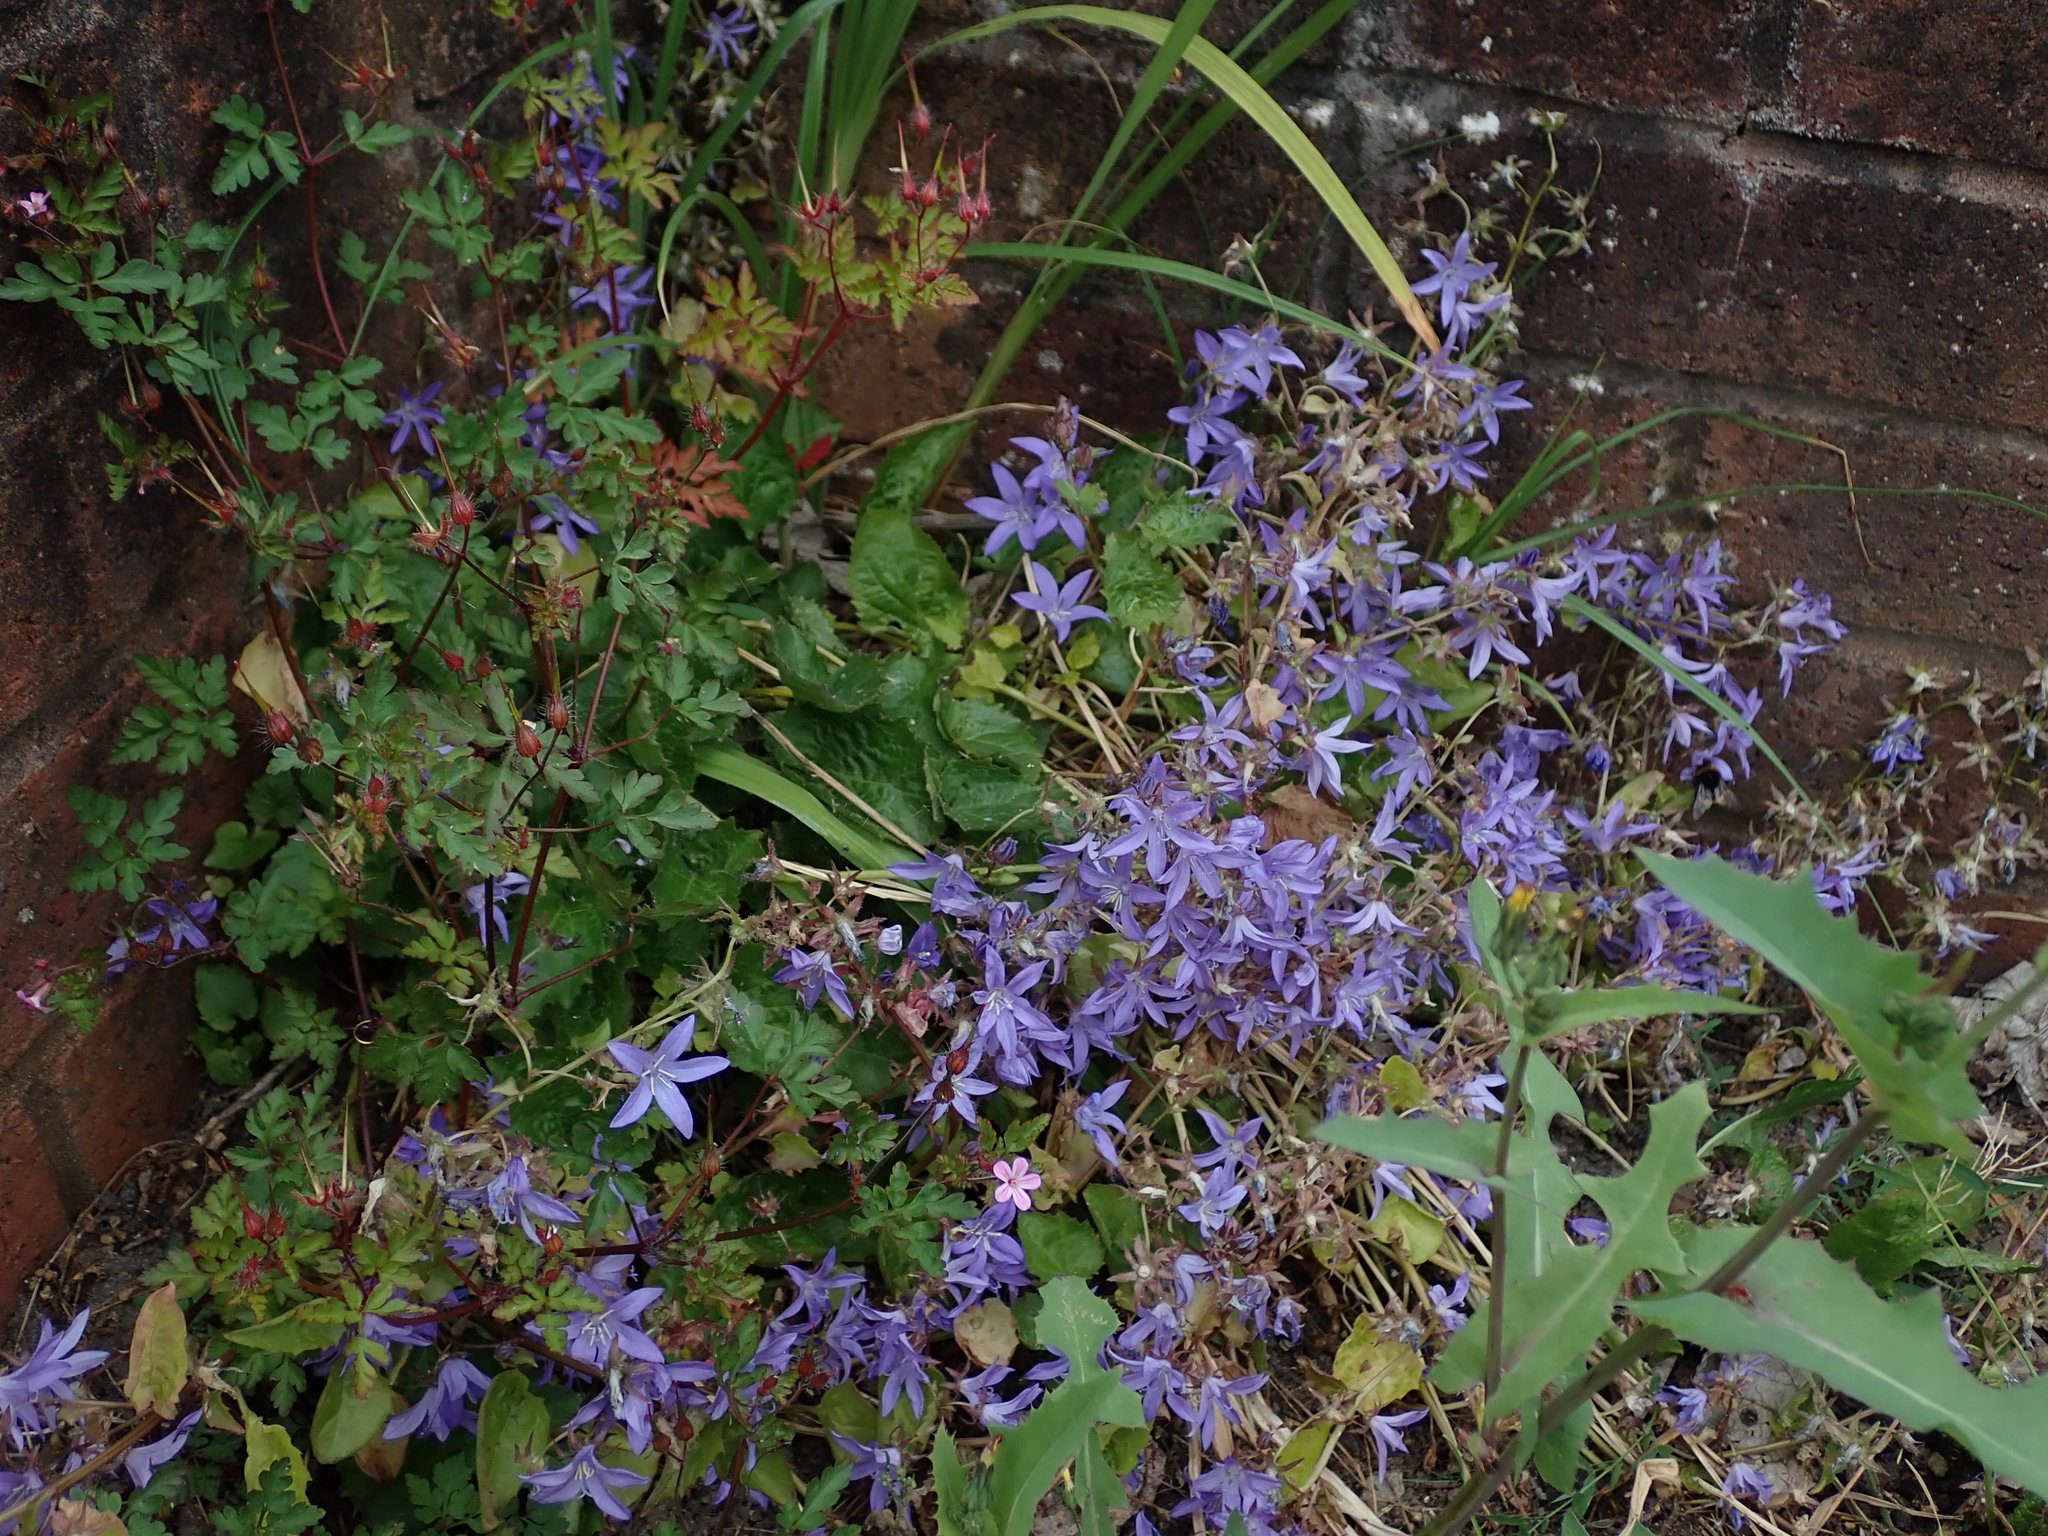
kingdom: Plantae
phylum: Tracheophyta
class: Magnoliopsida
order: Asterales
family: Campanulaceae
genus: Campanula
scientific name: Campanula poscharskyana
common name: Trailing bellflower
